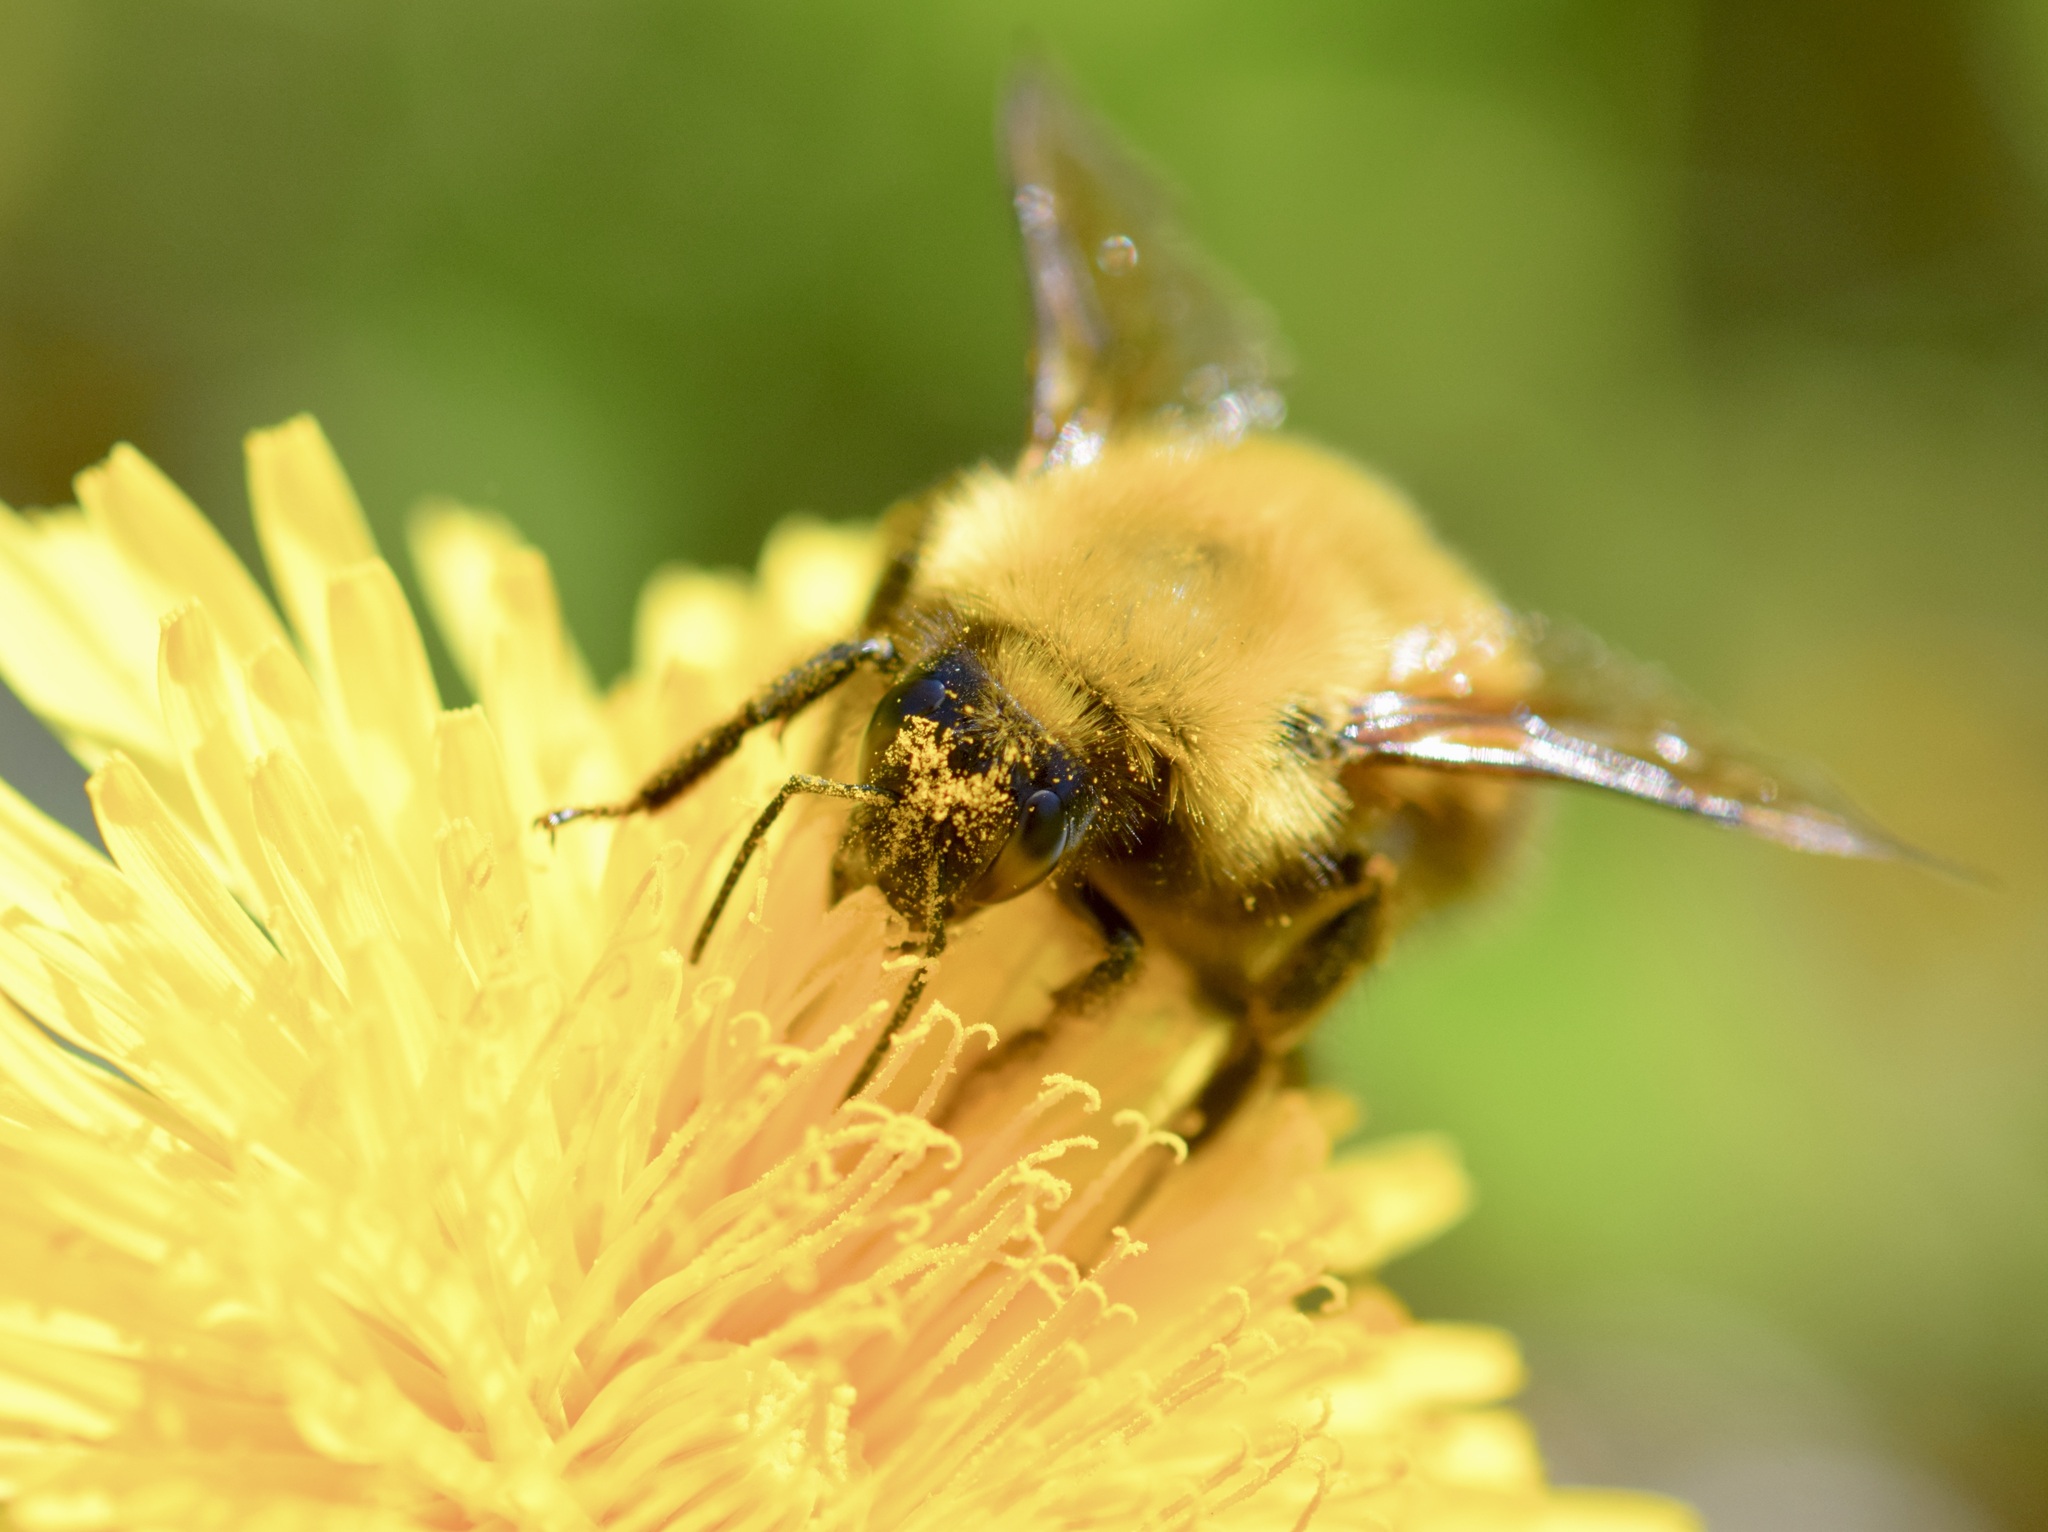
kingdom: Animalia
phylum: Arthropoda
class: Insecta
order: Hymenoptera
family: Apidae
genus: Bombus
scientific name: Bombus perplexus
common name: Confusing bumble bee
